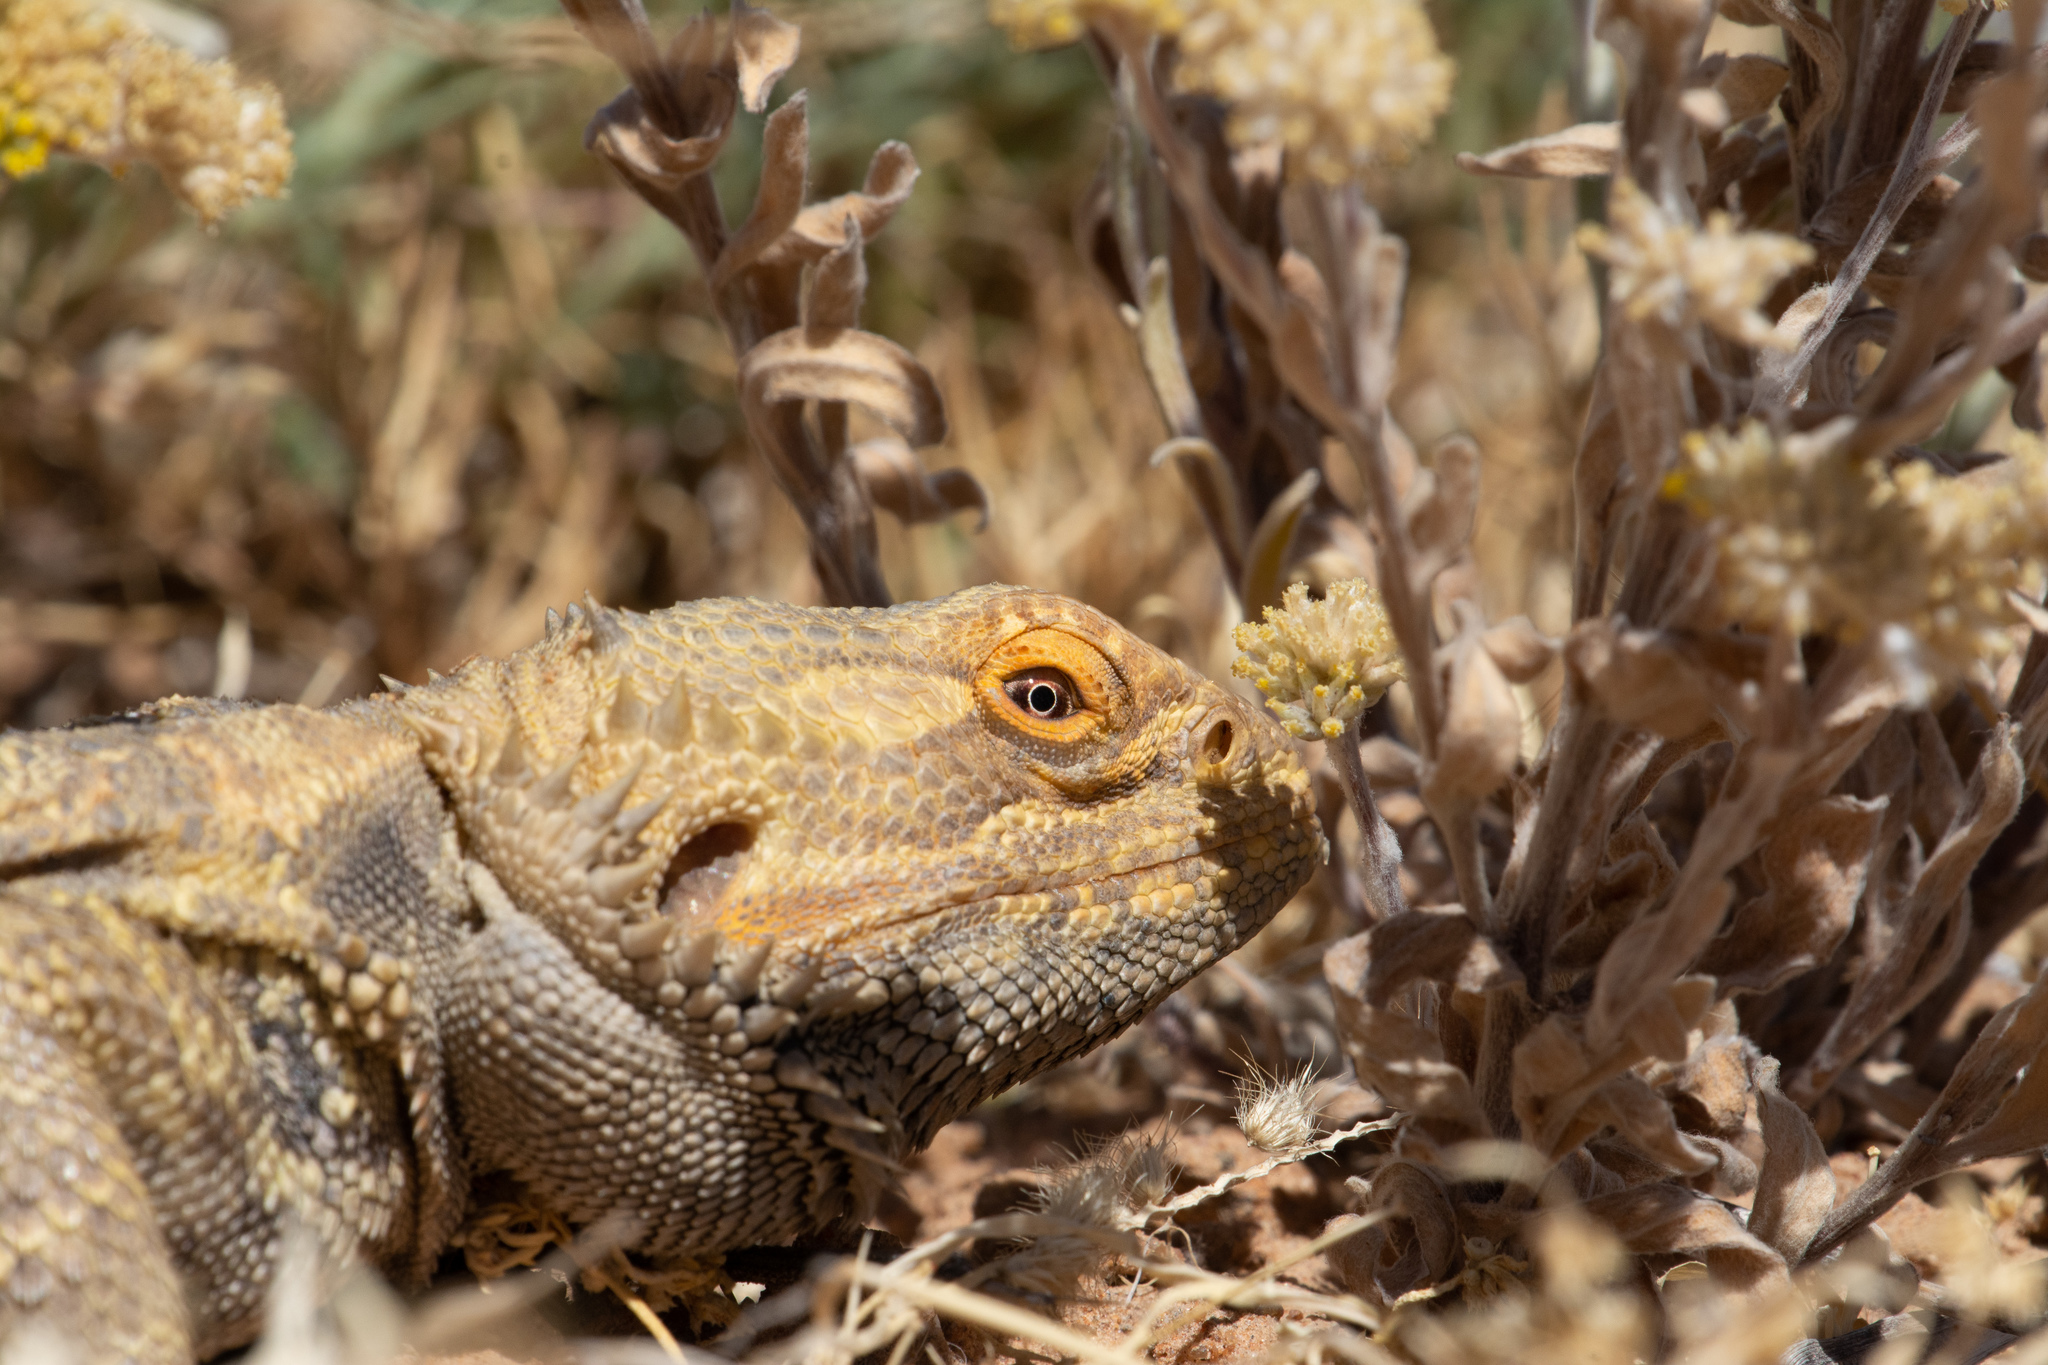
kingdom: Animalia
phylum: Chordata
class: Squamata
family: Agamidae
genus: Pogona
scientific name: Pogona vitticeps
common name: Central bearded dragon
